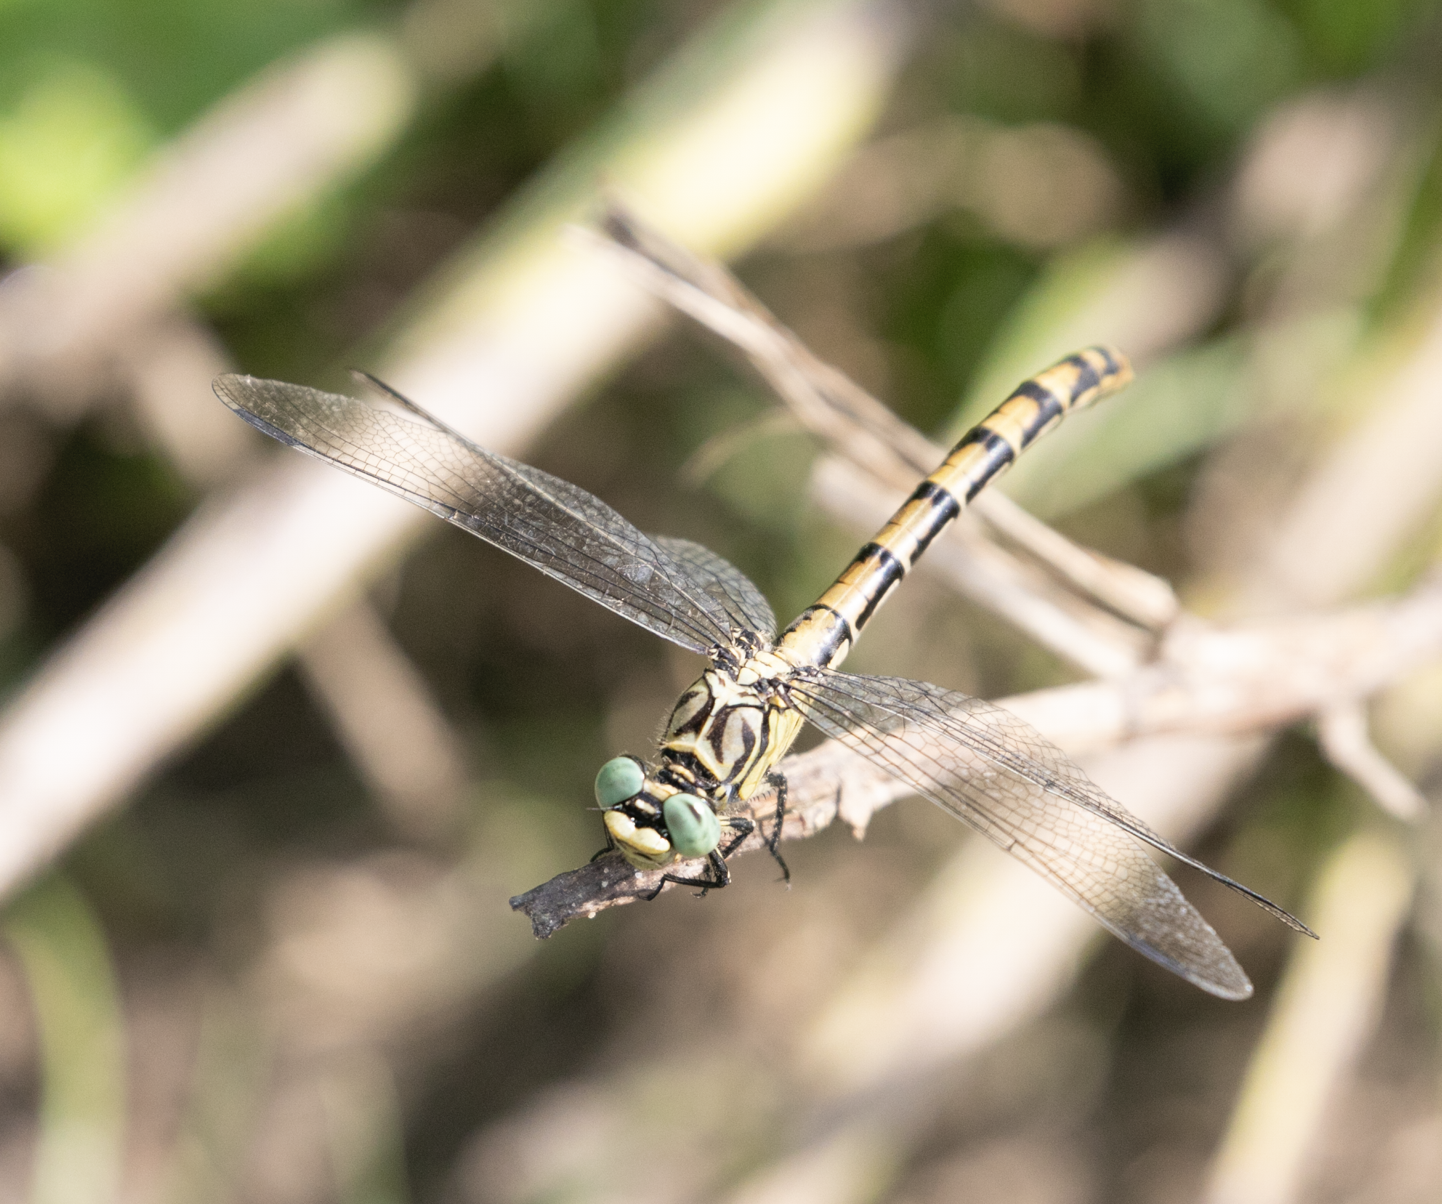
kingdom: Animalia
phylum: Arthropoda
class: Insecta
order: Odonata
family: Gomphidae
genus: Onychogomphus
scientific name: Onychogomphus forcipatus
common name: Small pincertail
